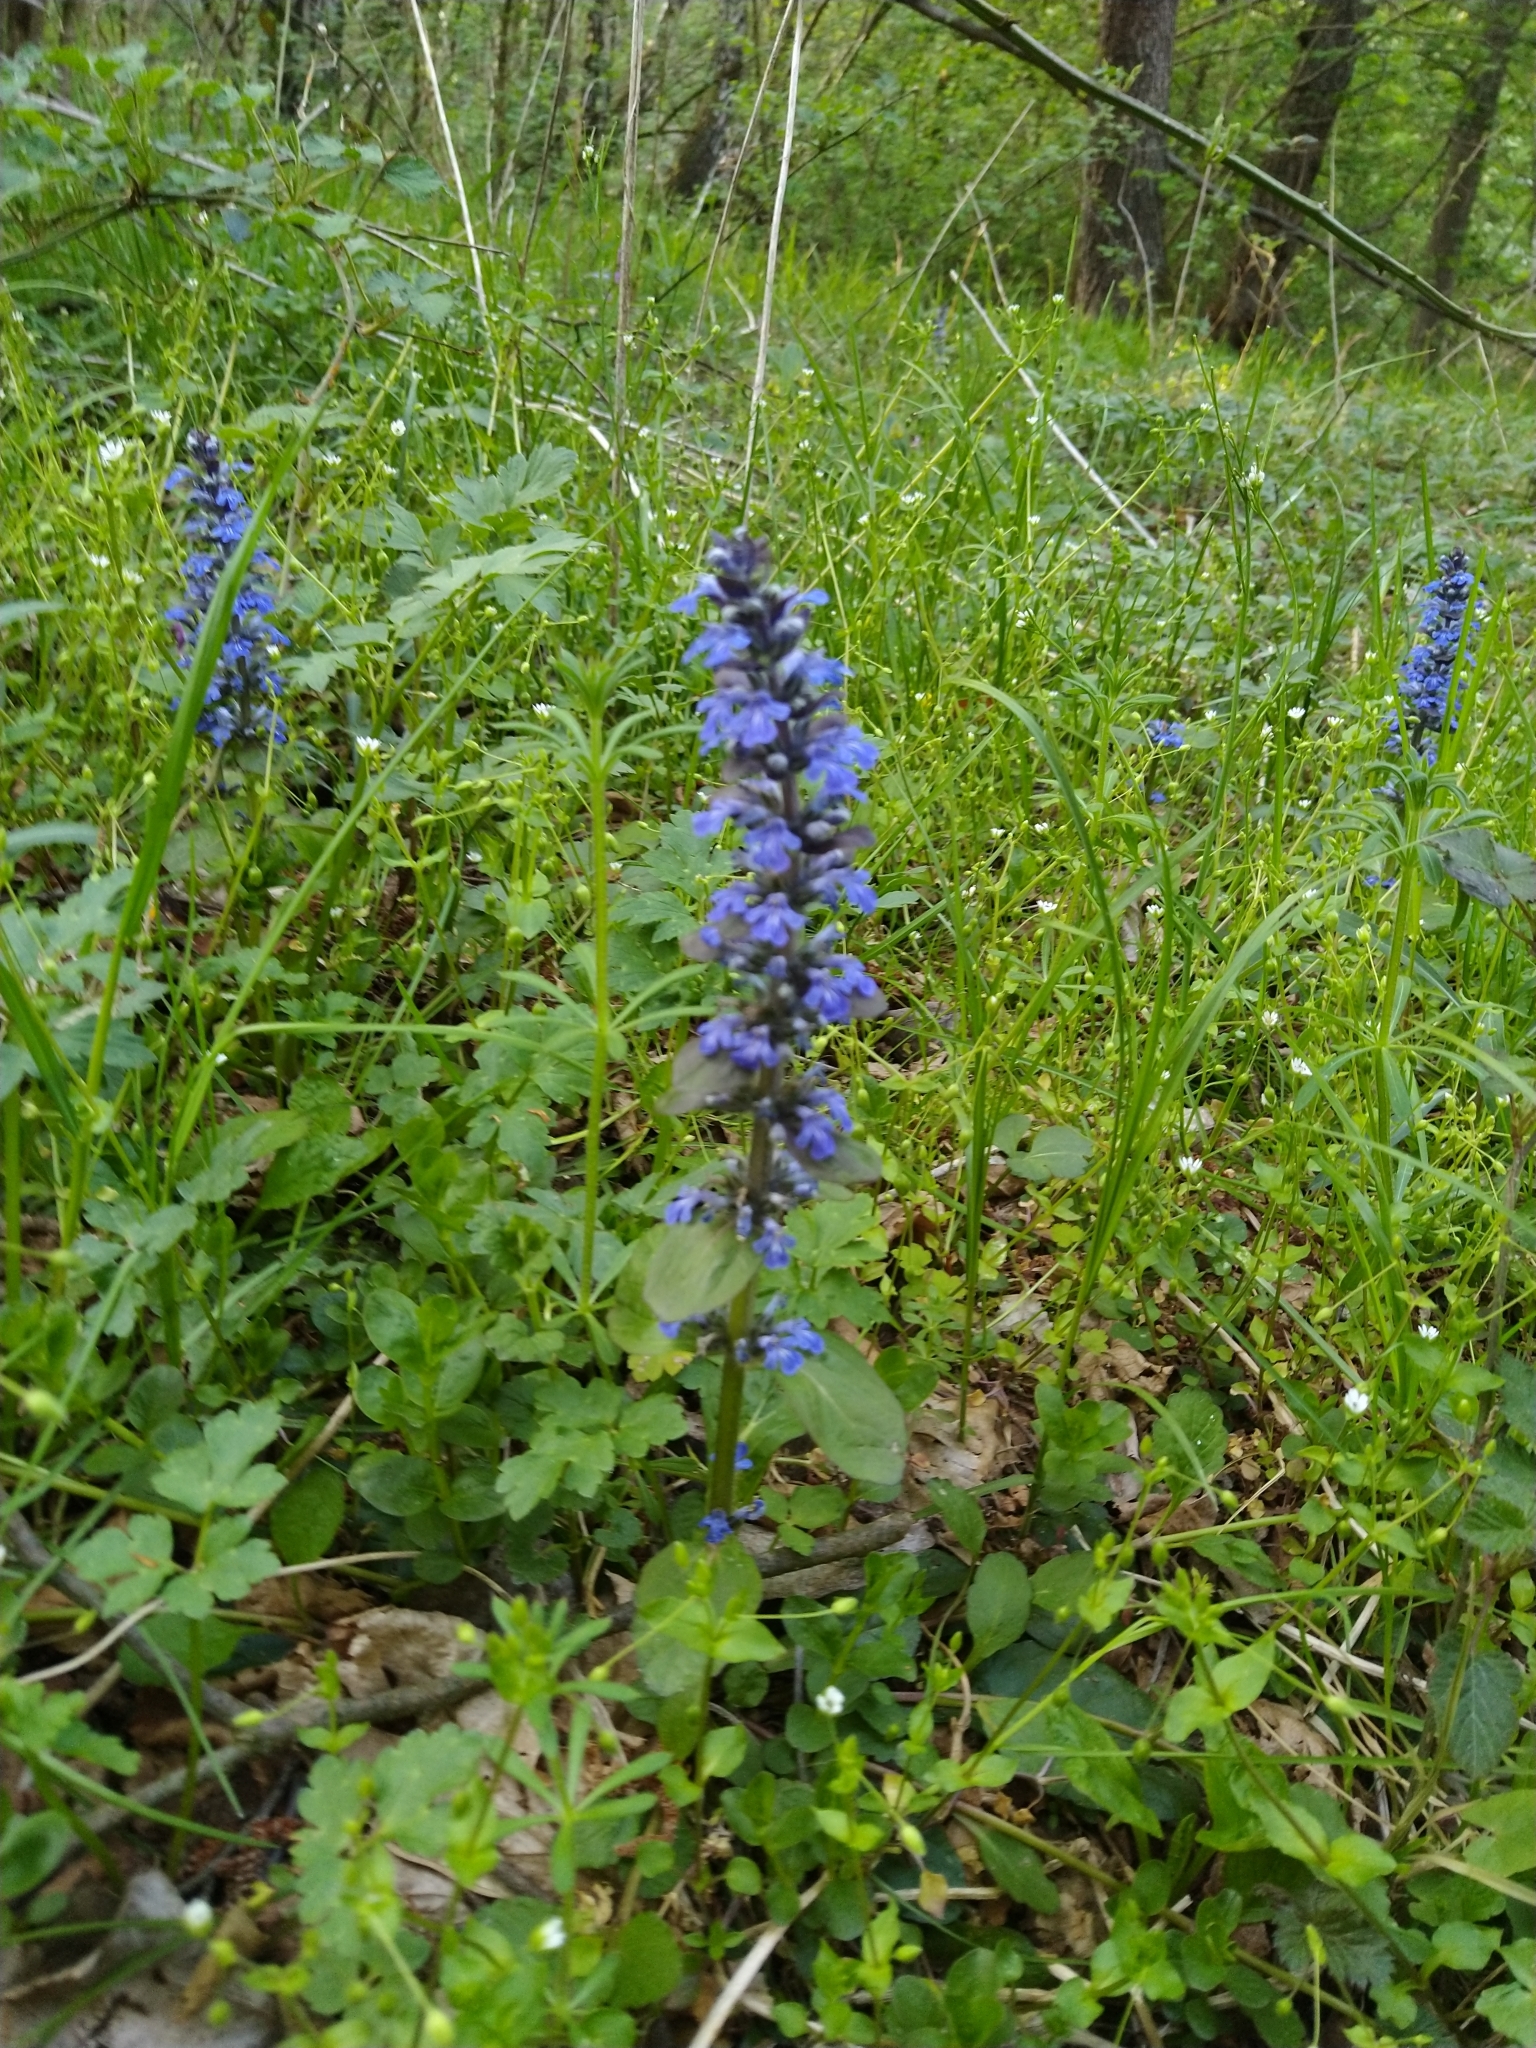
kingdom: Plantae
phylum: Tracheophyta
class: Magnoliopsida
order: Lamiales
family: Lamiaceae
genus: Ajuga
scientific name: Ajuga reptans
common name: Bugle
